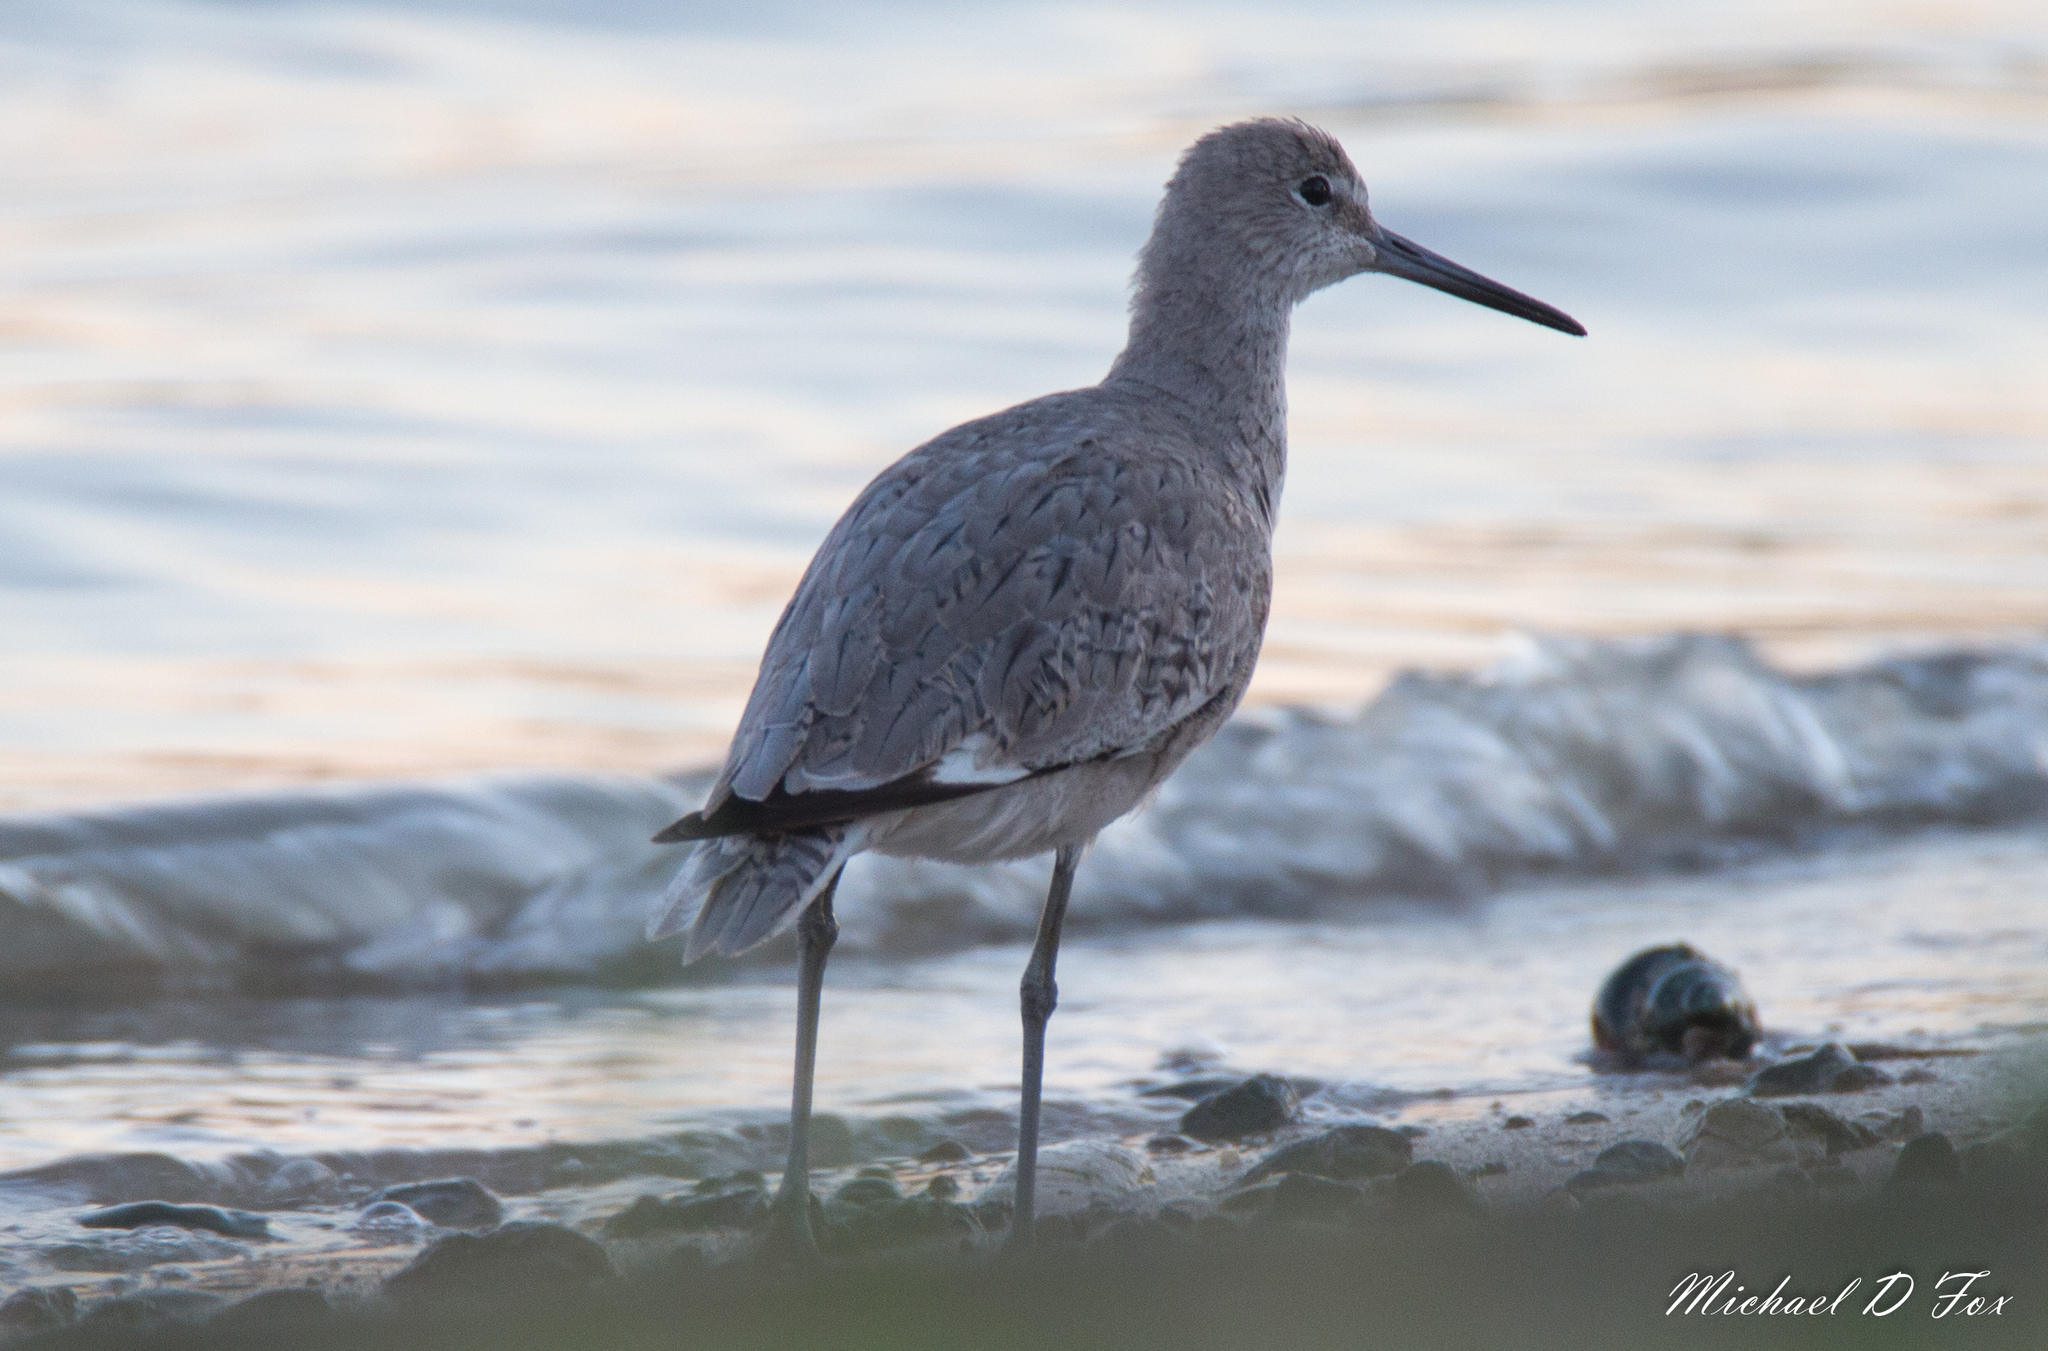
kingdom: Animalia
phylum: Chordata
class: Aves
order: Charadriiformes
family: Scolopacidae
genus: Tringa
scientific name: Tringa semipalmata
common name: Willet
